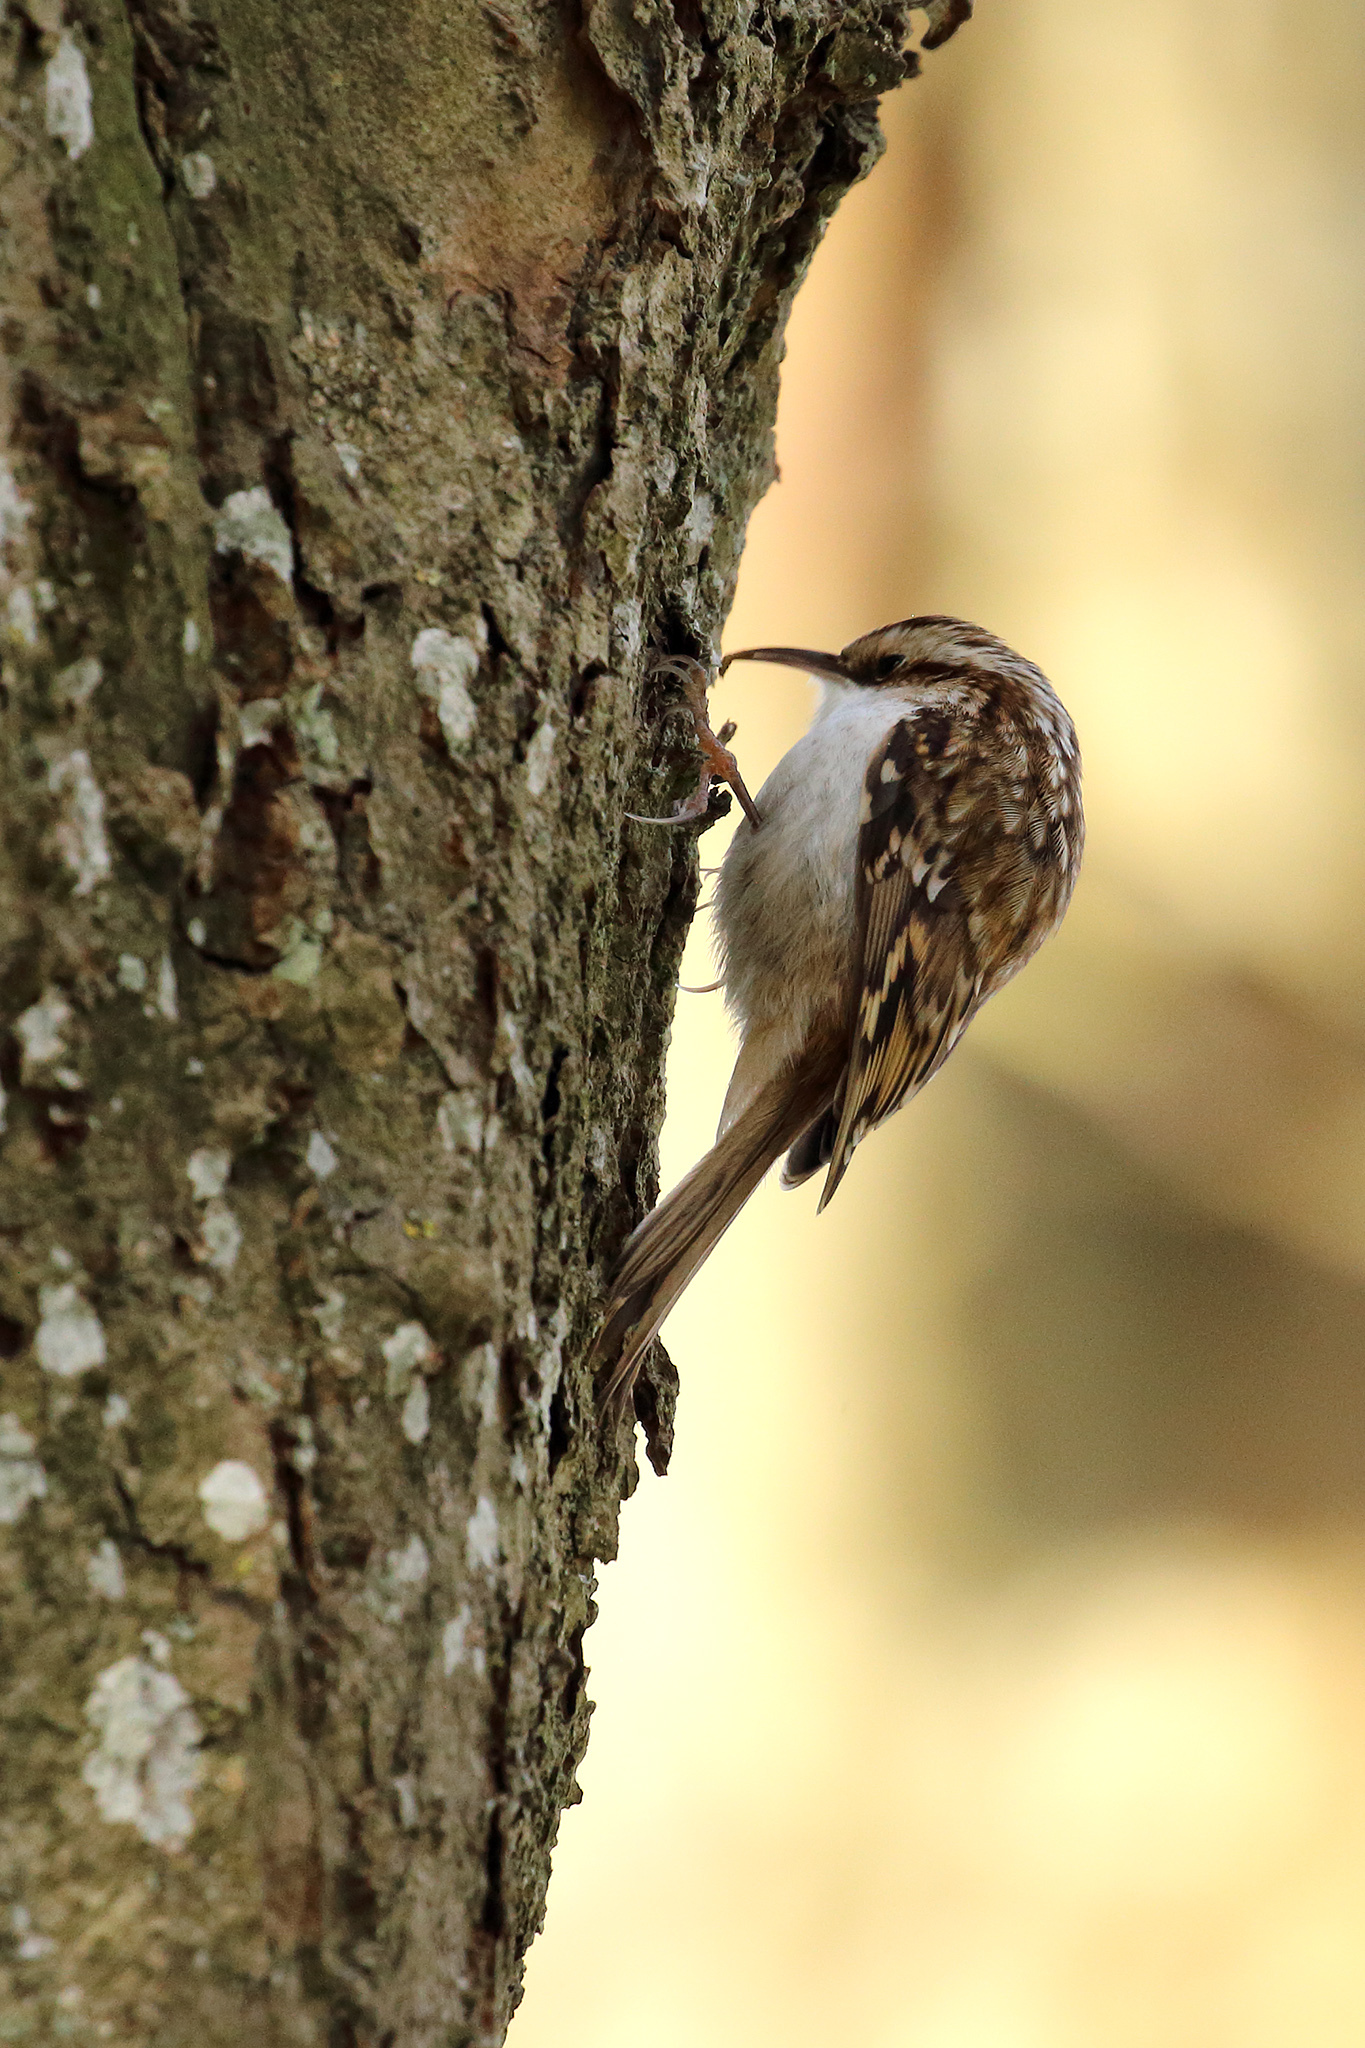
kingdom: Animalia
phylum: Chordata
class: Aves
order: Passeriformes
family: Certhiidae
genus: Certhia
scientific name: Certhia familiaris
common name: Eurasian treecreeper
